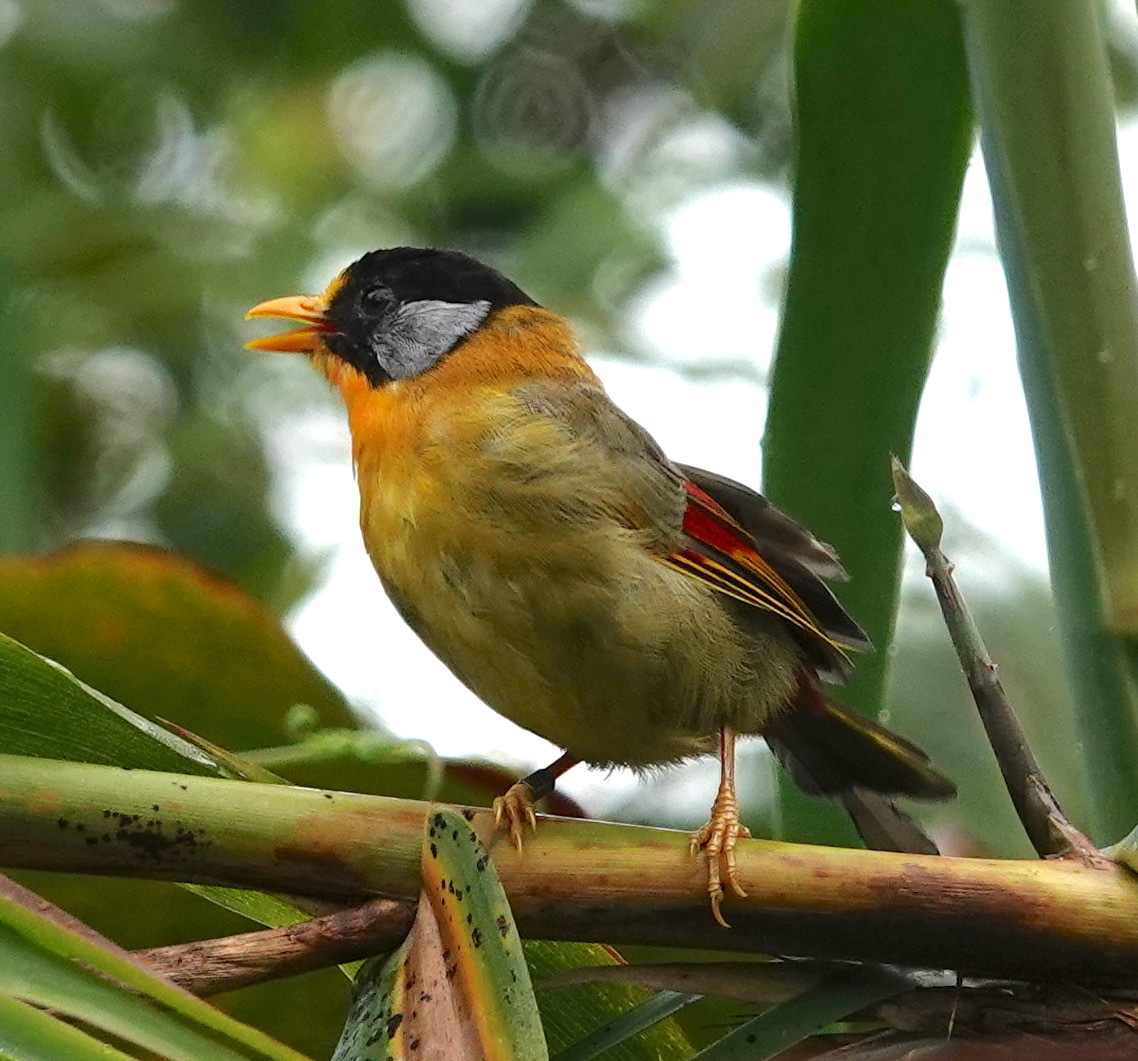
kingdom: Animalia
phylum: Chordata
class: Aves
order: Passeriformes
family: Leiothrichidae
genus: Leiothrix
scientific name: Leiothrix argentauris
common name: Silver-eared mesia
